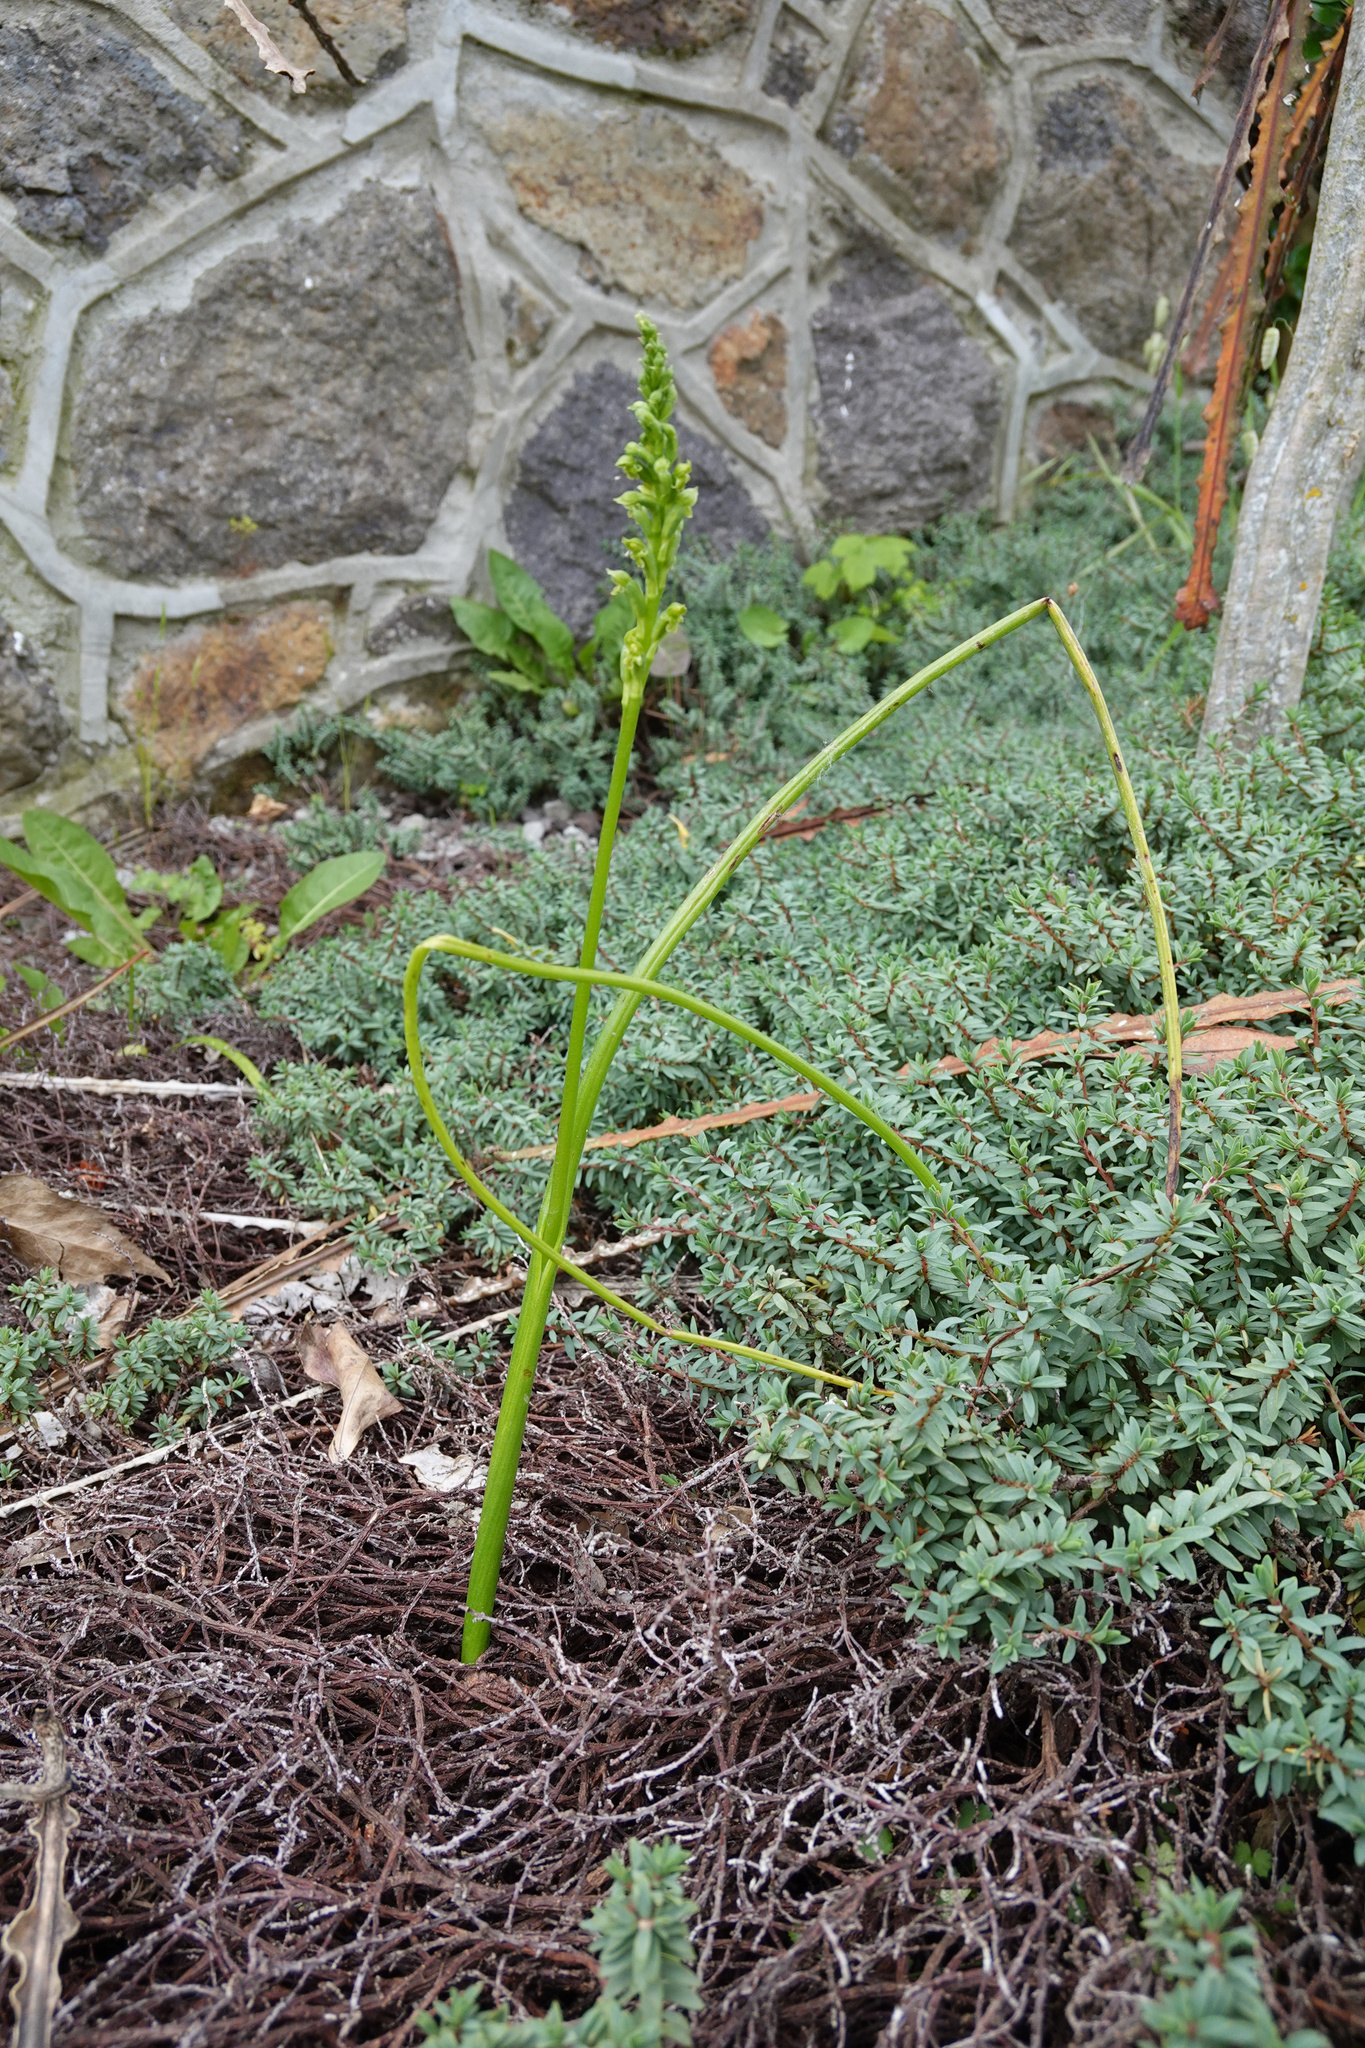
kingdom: Plantae
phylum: Tracheophyta
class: Liliopsida
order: Asparagales
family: Orchidaceae
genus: Microtis
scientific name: Microtis unifolia
